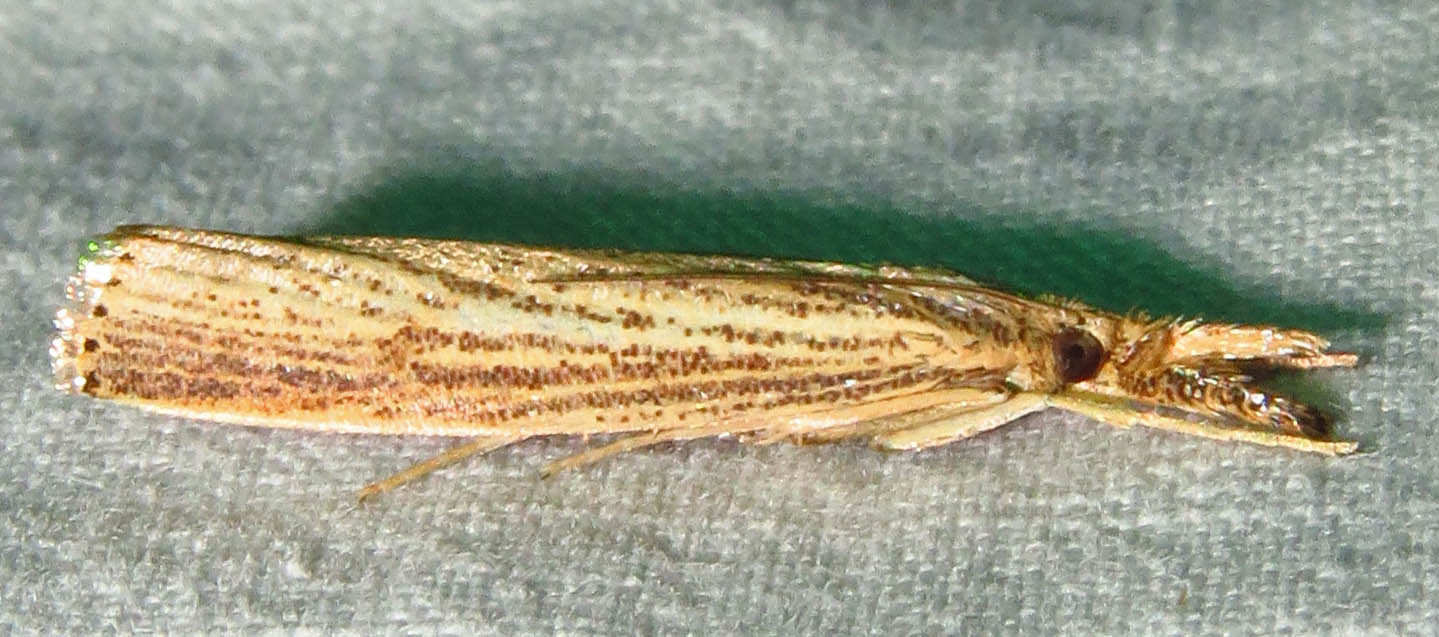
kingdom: Animalia
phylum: Arthropoda
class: Insecta
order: Lepidoptera
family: Crambidae
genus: Agriphila
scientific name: Agriphila vulgivagellus
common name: Vagabond crambus moth
